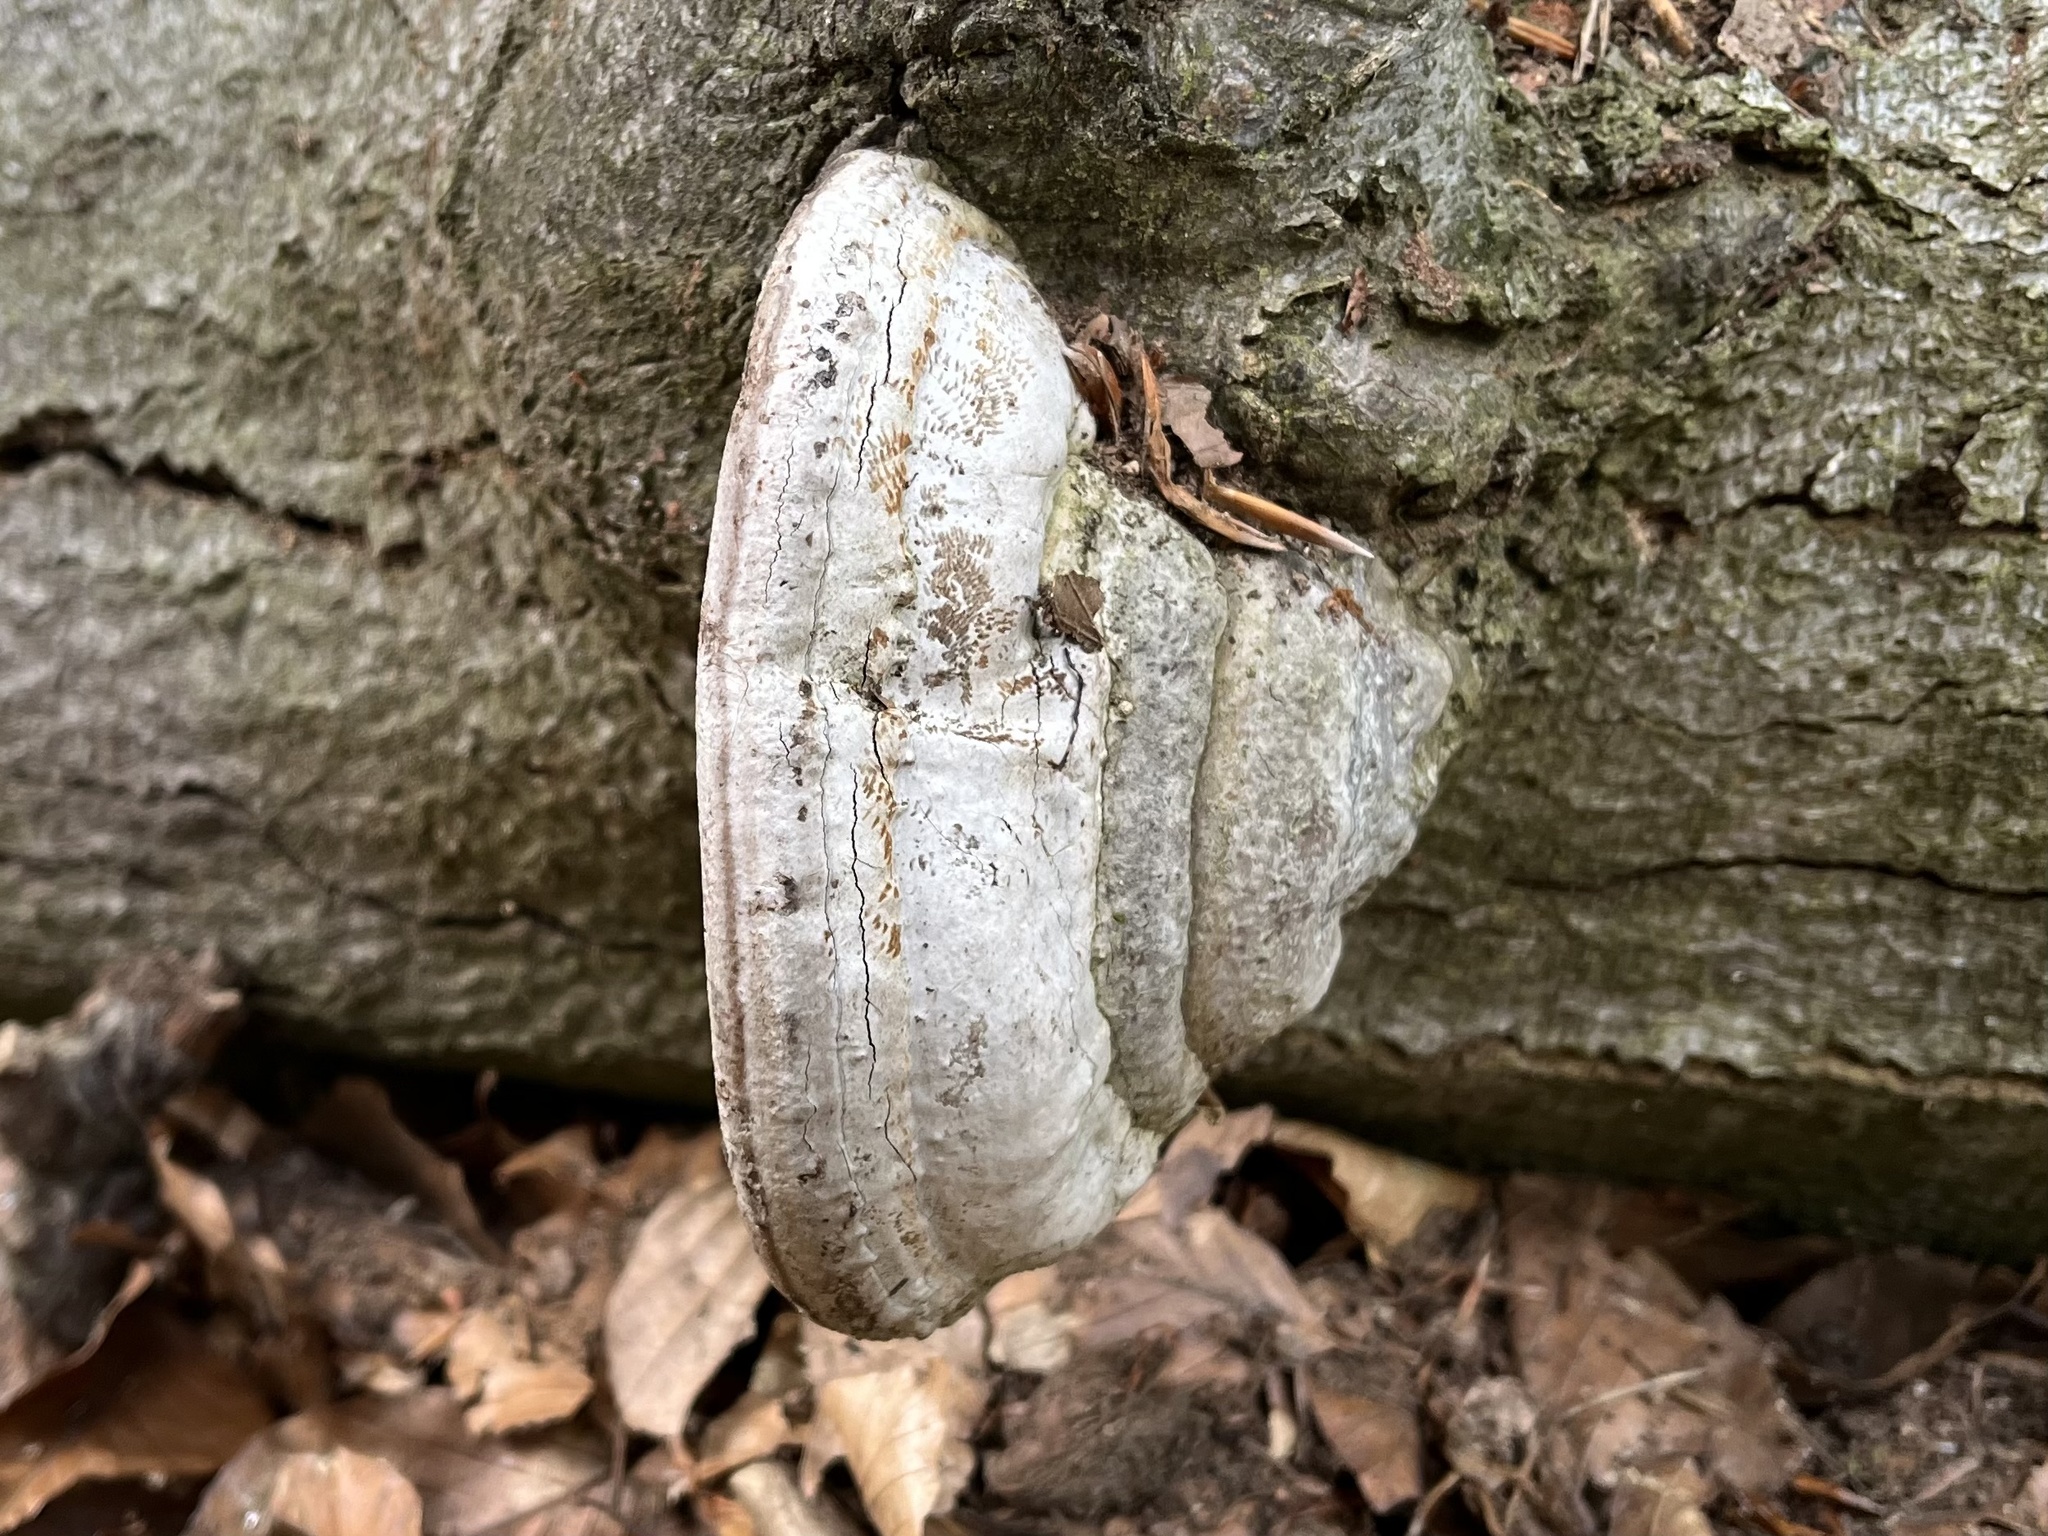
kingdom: Fungi
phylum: Basidiomycota
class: Agaricomycetes
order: Polyporales
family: Polyporaceae
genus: Fomes
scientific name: Fomes fomentarius
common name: Hoof fungus
